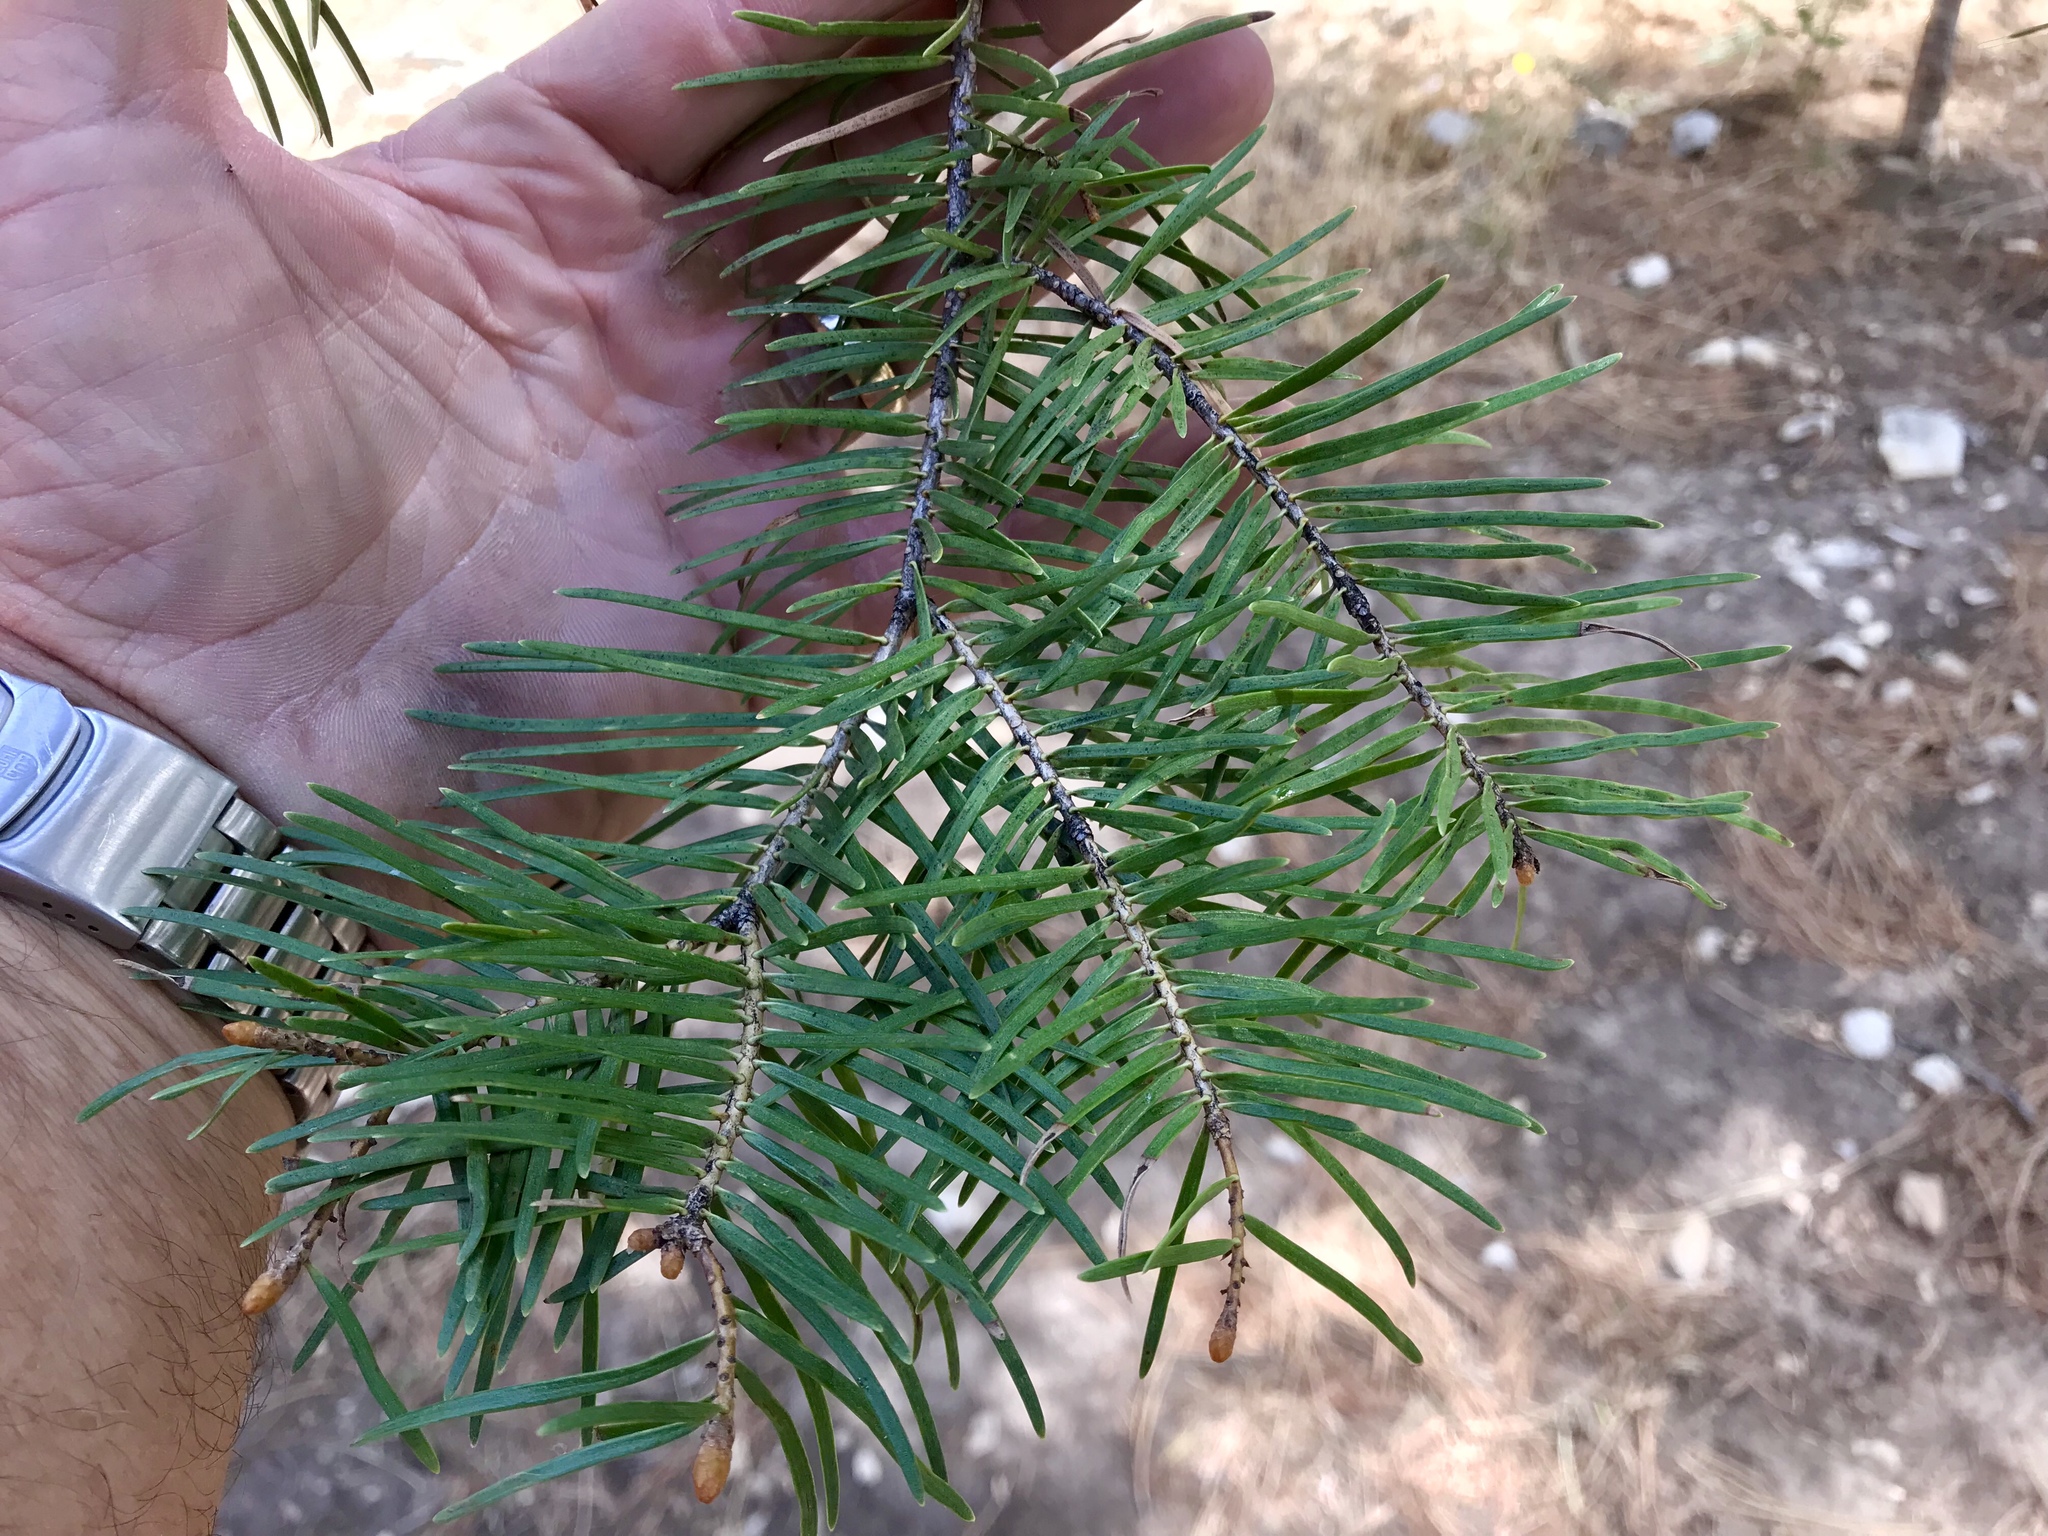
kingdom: Plantae
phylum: Tracheophyta
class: Pinopsida
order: Pinales
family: Pinaceae
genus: Abies
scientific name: Abies concolor
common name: Colorado fir
